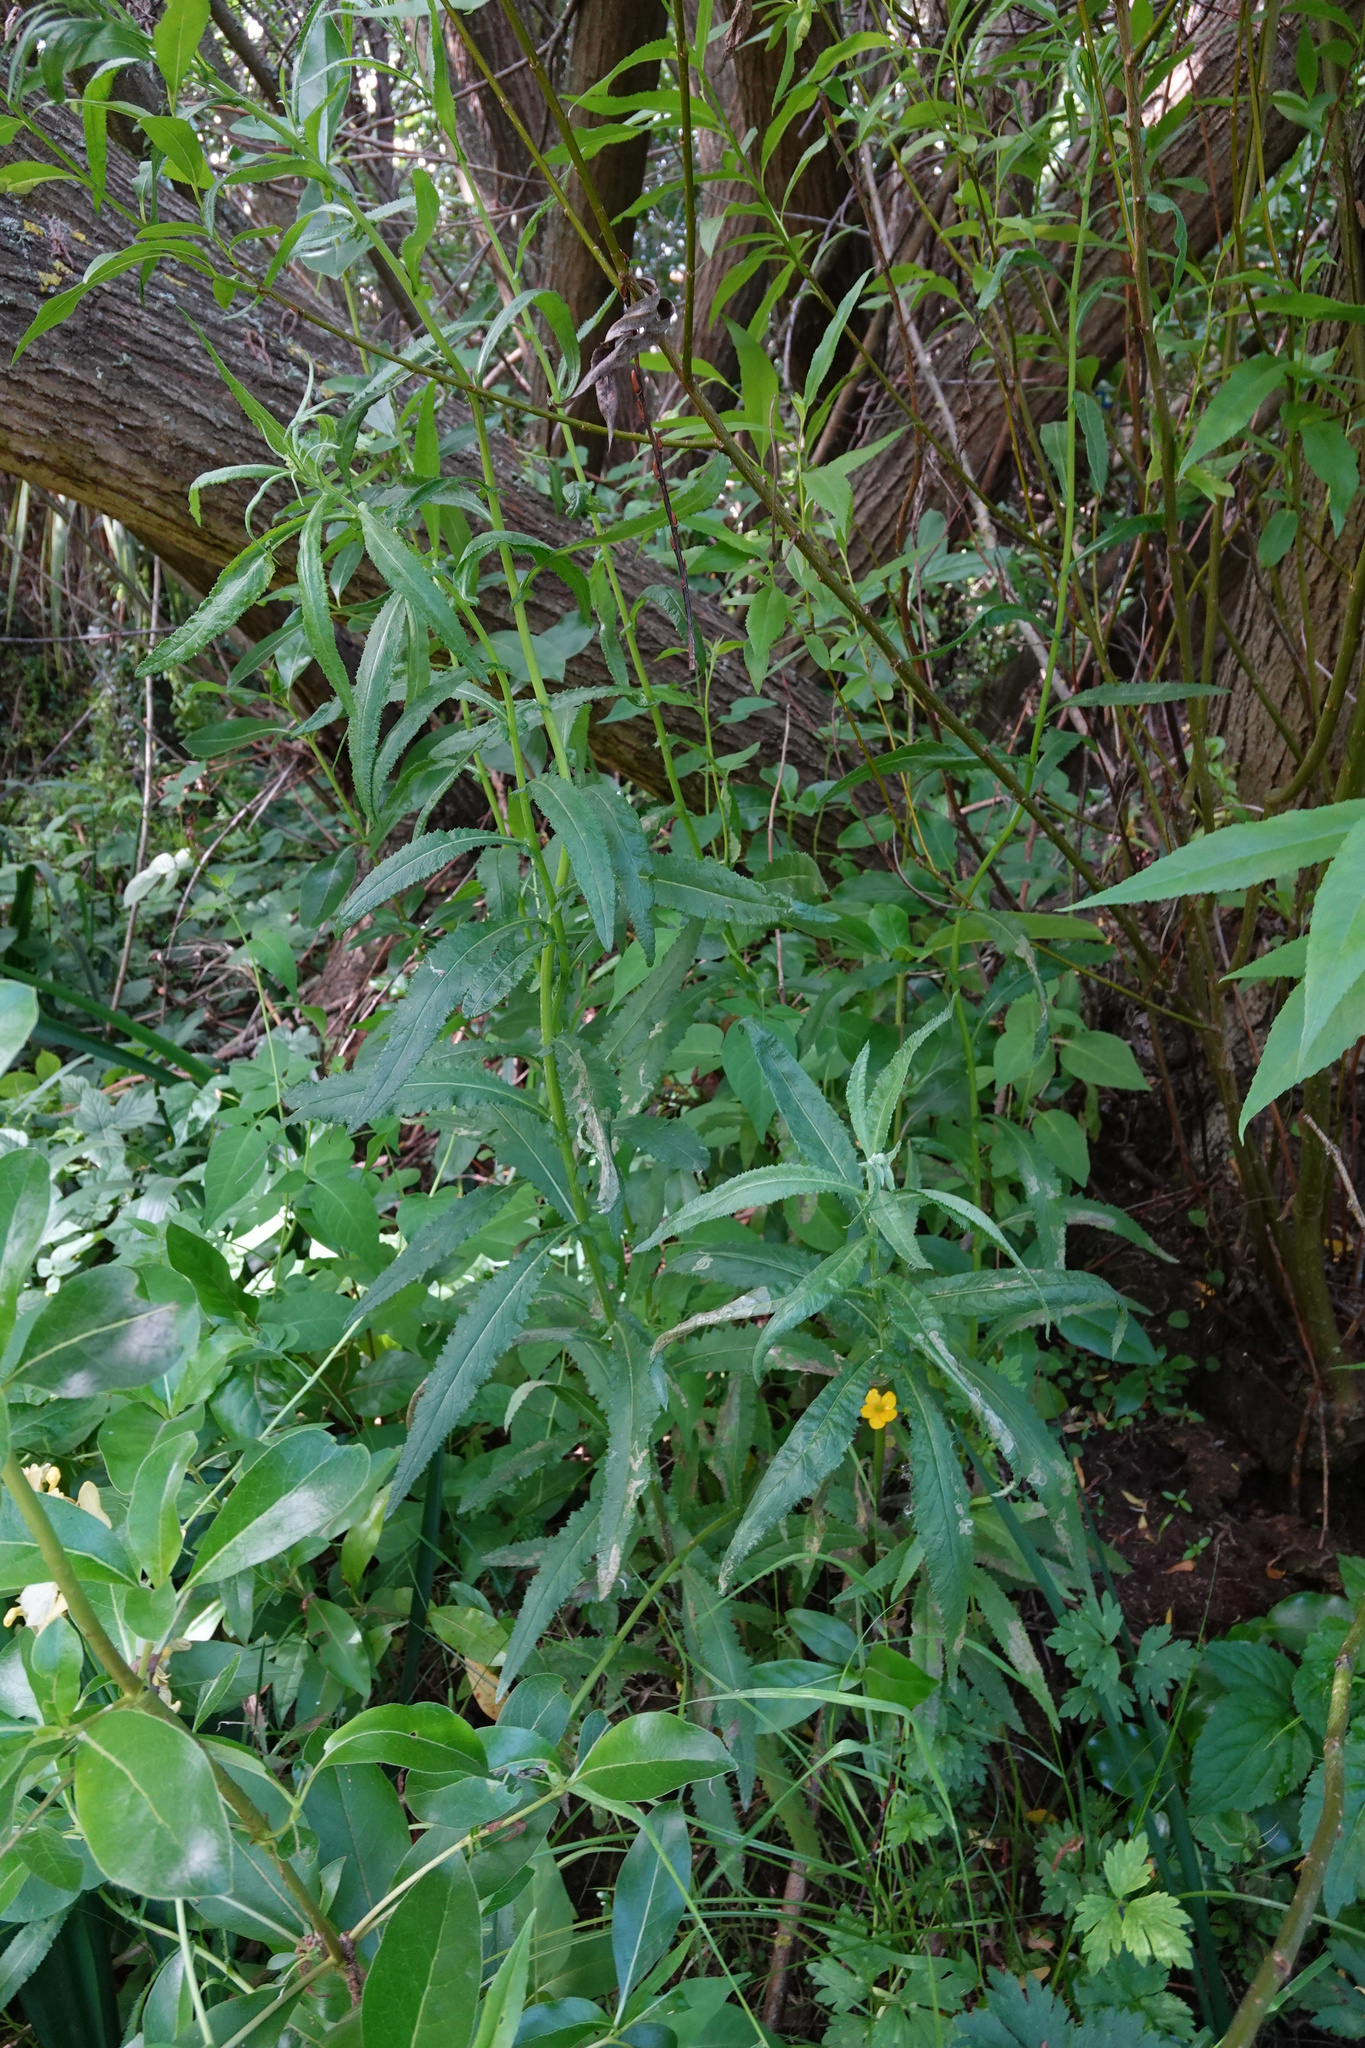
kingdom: Plantae
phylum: Tracheophyta
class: Magnoliopsida
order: Asterales
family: Asteraceae
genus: Senecio
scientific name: Senecio minimus
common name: Toothed fireweed
